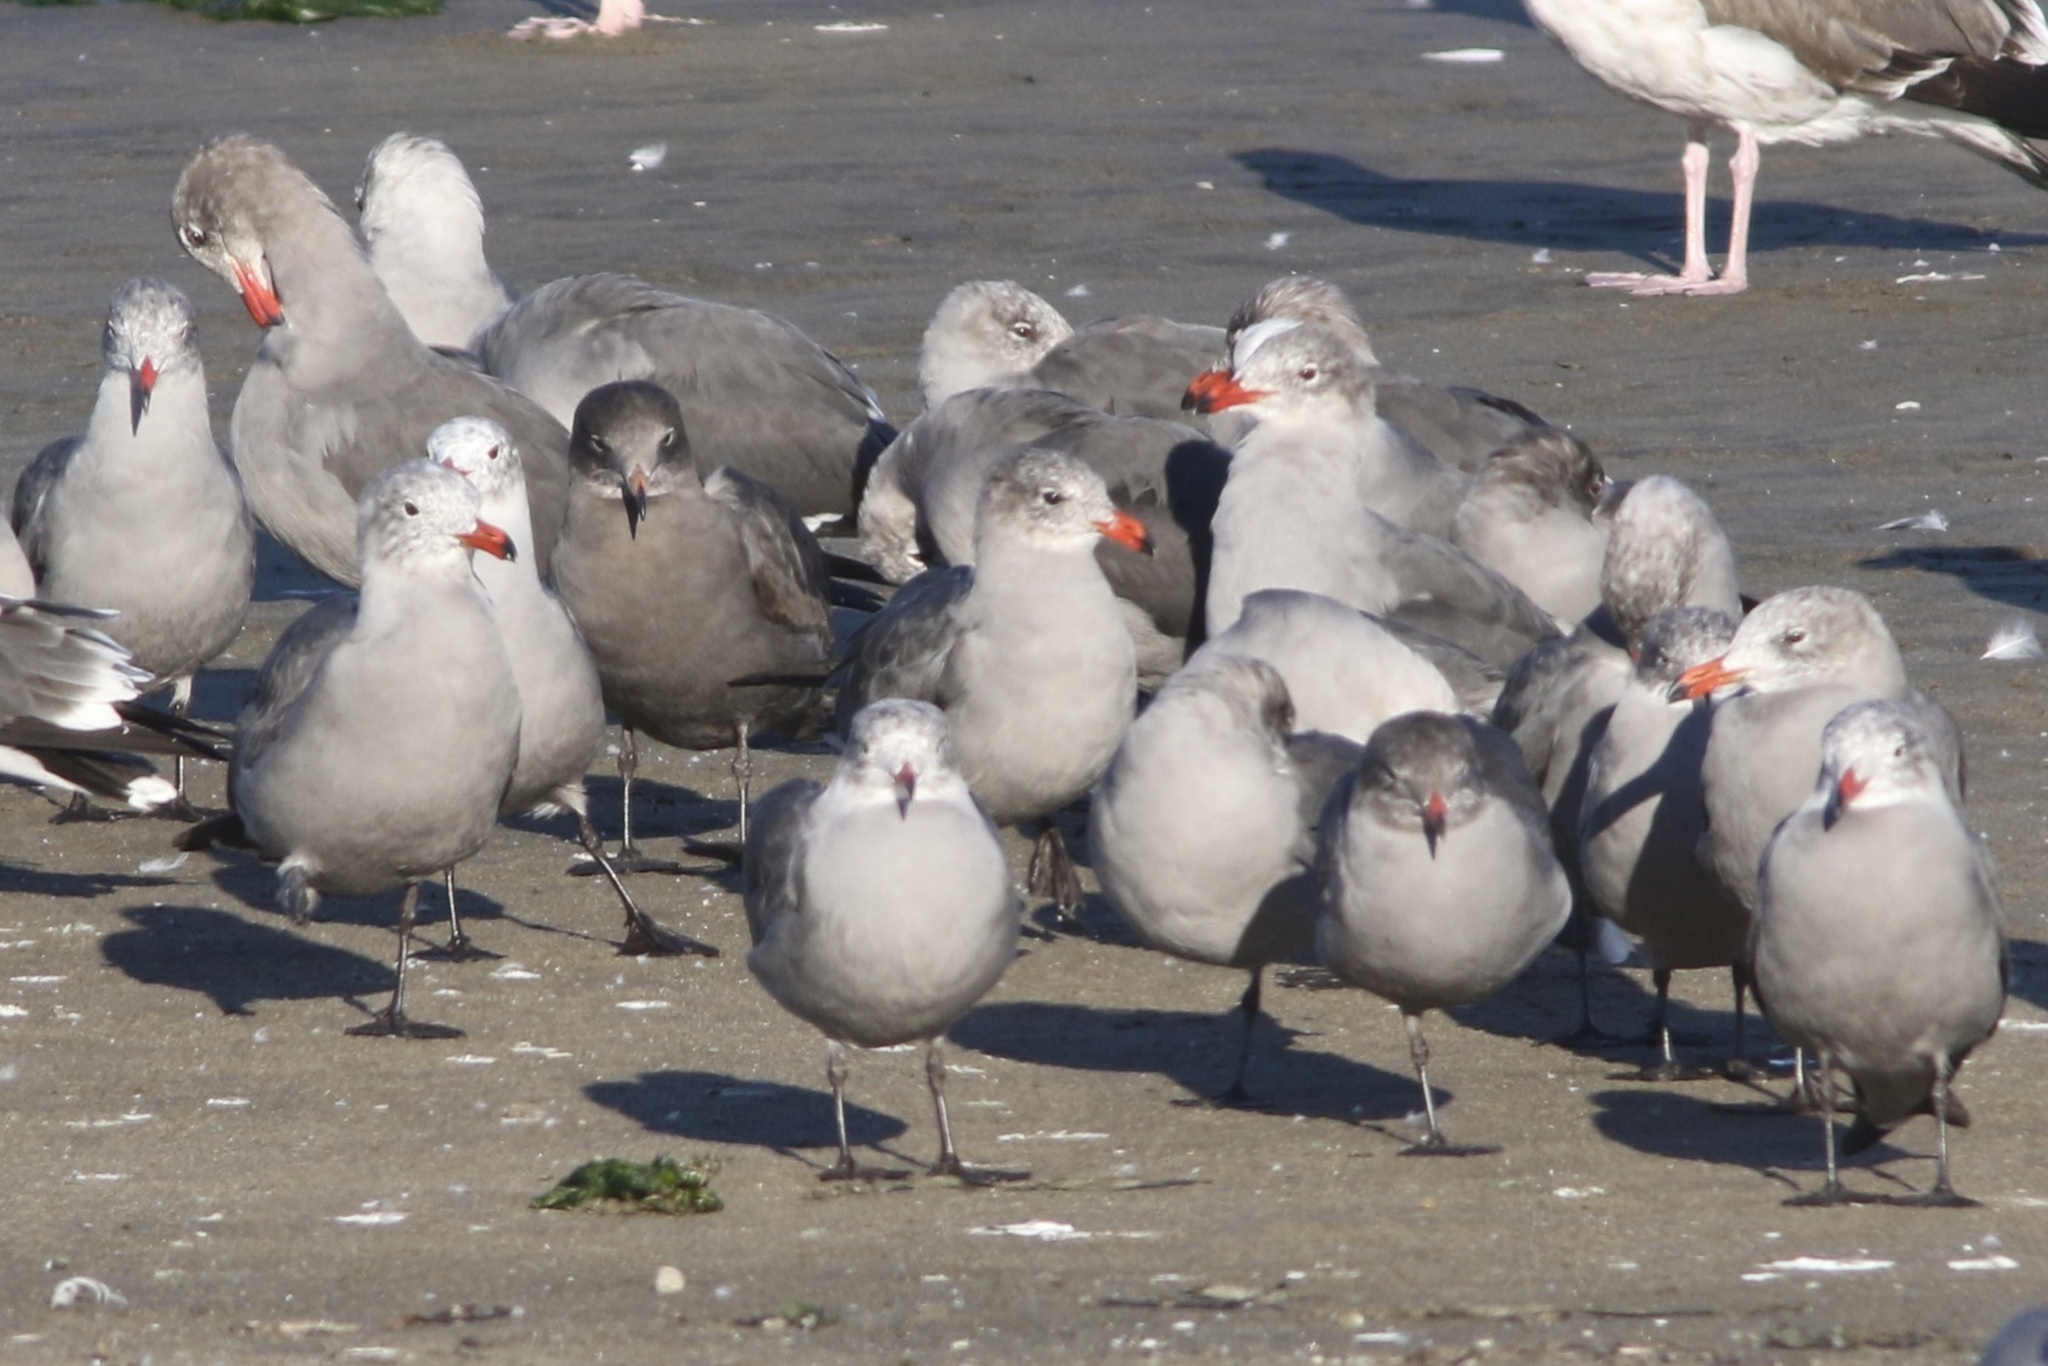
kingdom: Animalia
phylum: Chordata
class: Aves
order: Charadriiformes
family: Laridae
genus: Larus
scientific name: Larus heermanni
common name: Heermann's gull
